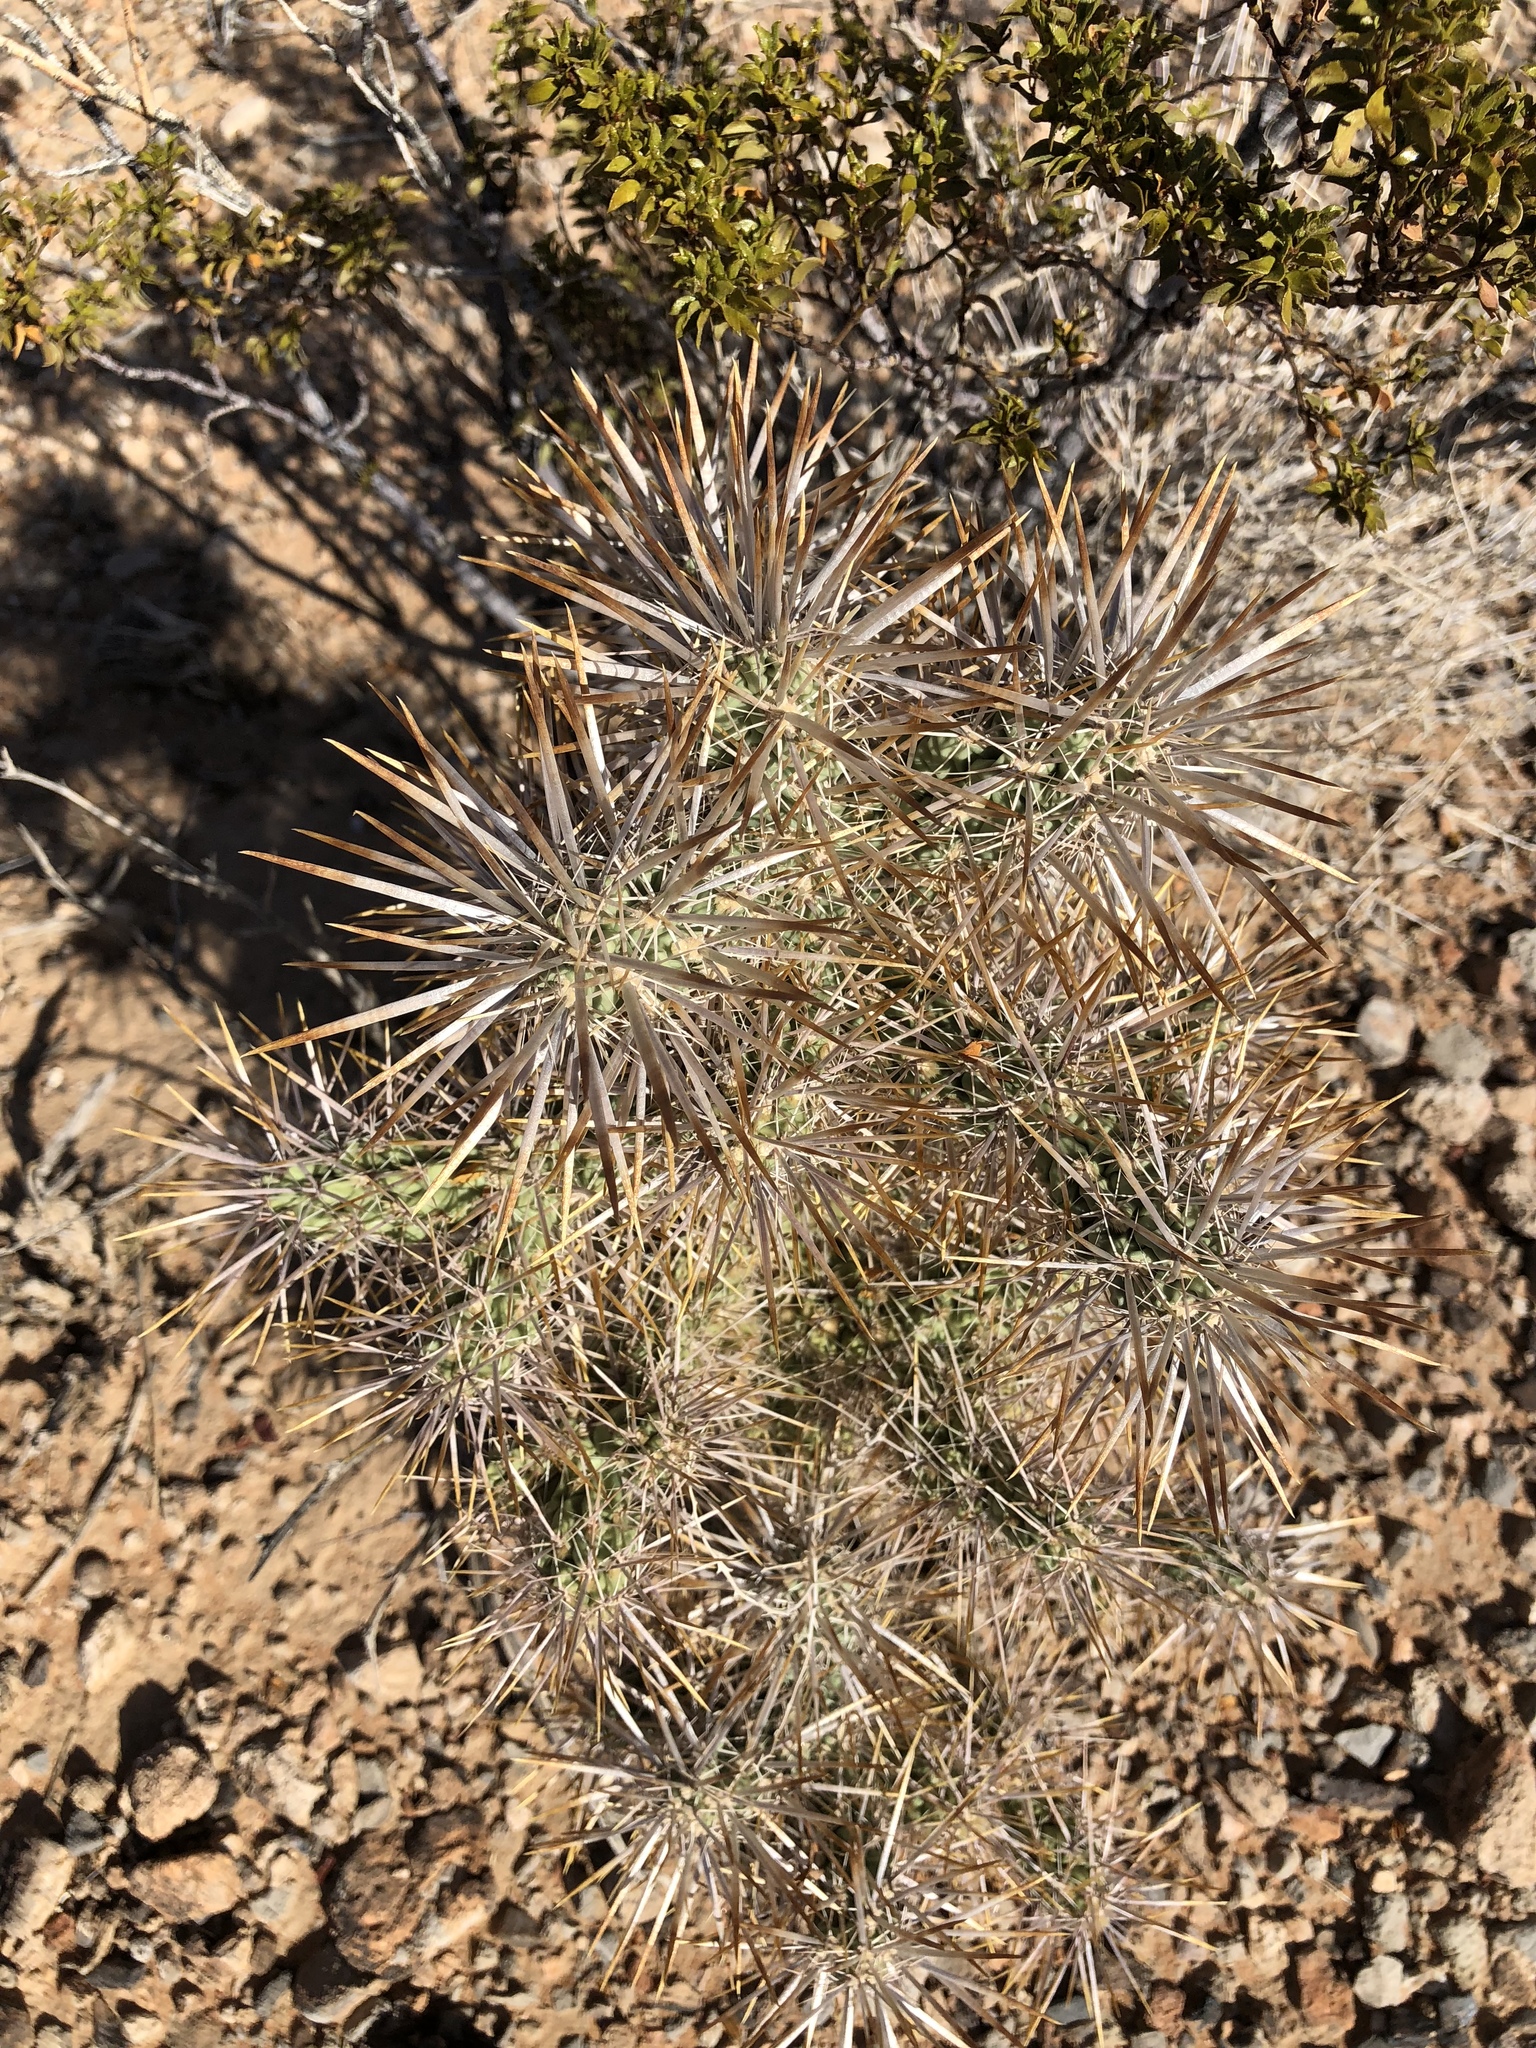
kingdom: Plantae
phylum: Tracheophyta
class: Magnoliopsida
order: Caryophyllales
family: Cactaceae
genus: Cylindropuntia
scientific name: Cylindropuntia echinocarpa
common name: Ground cholla
